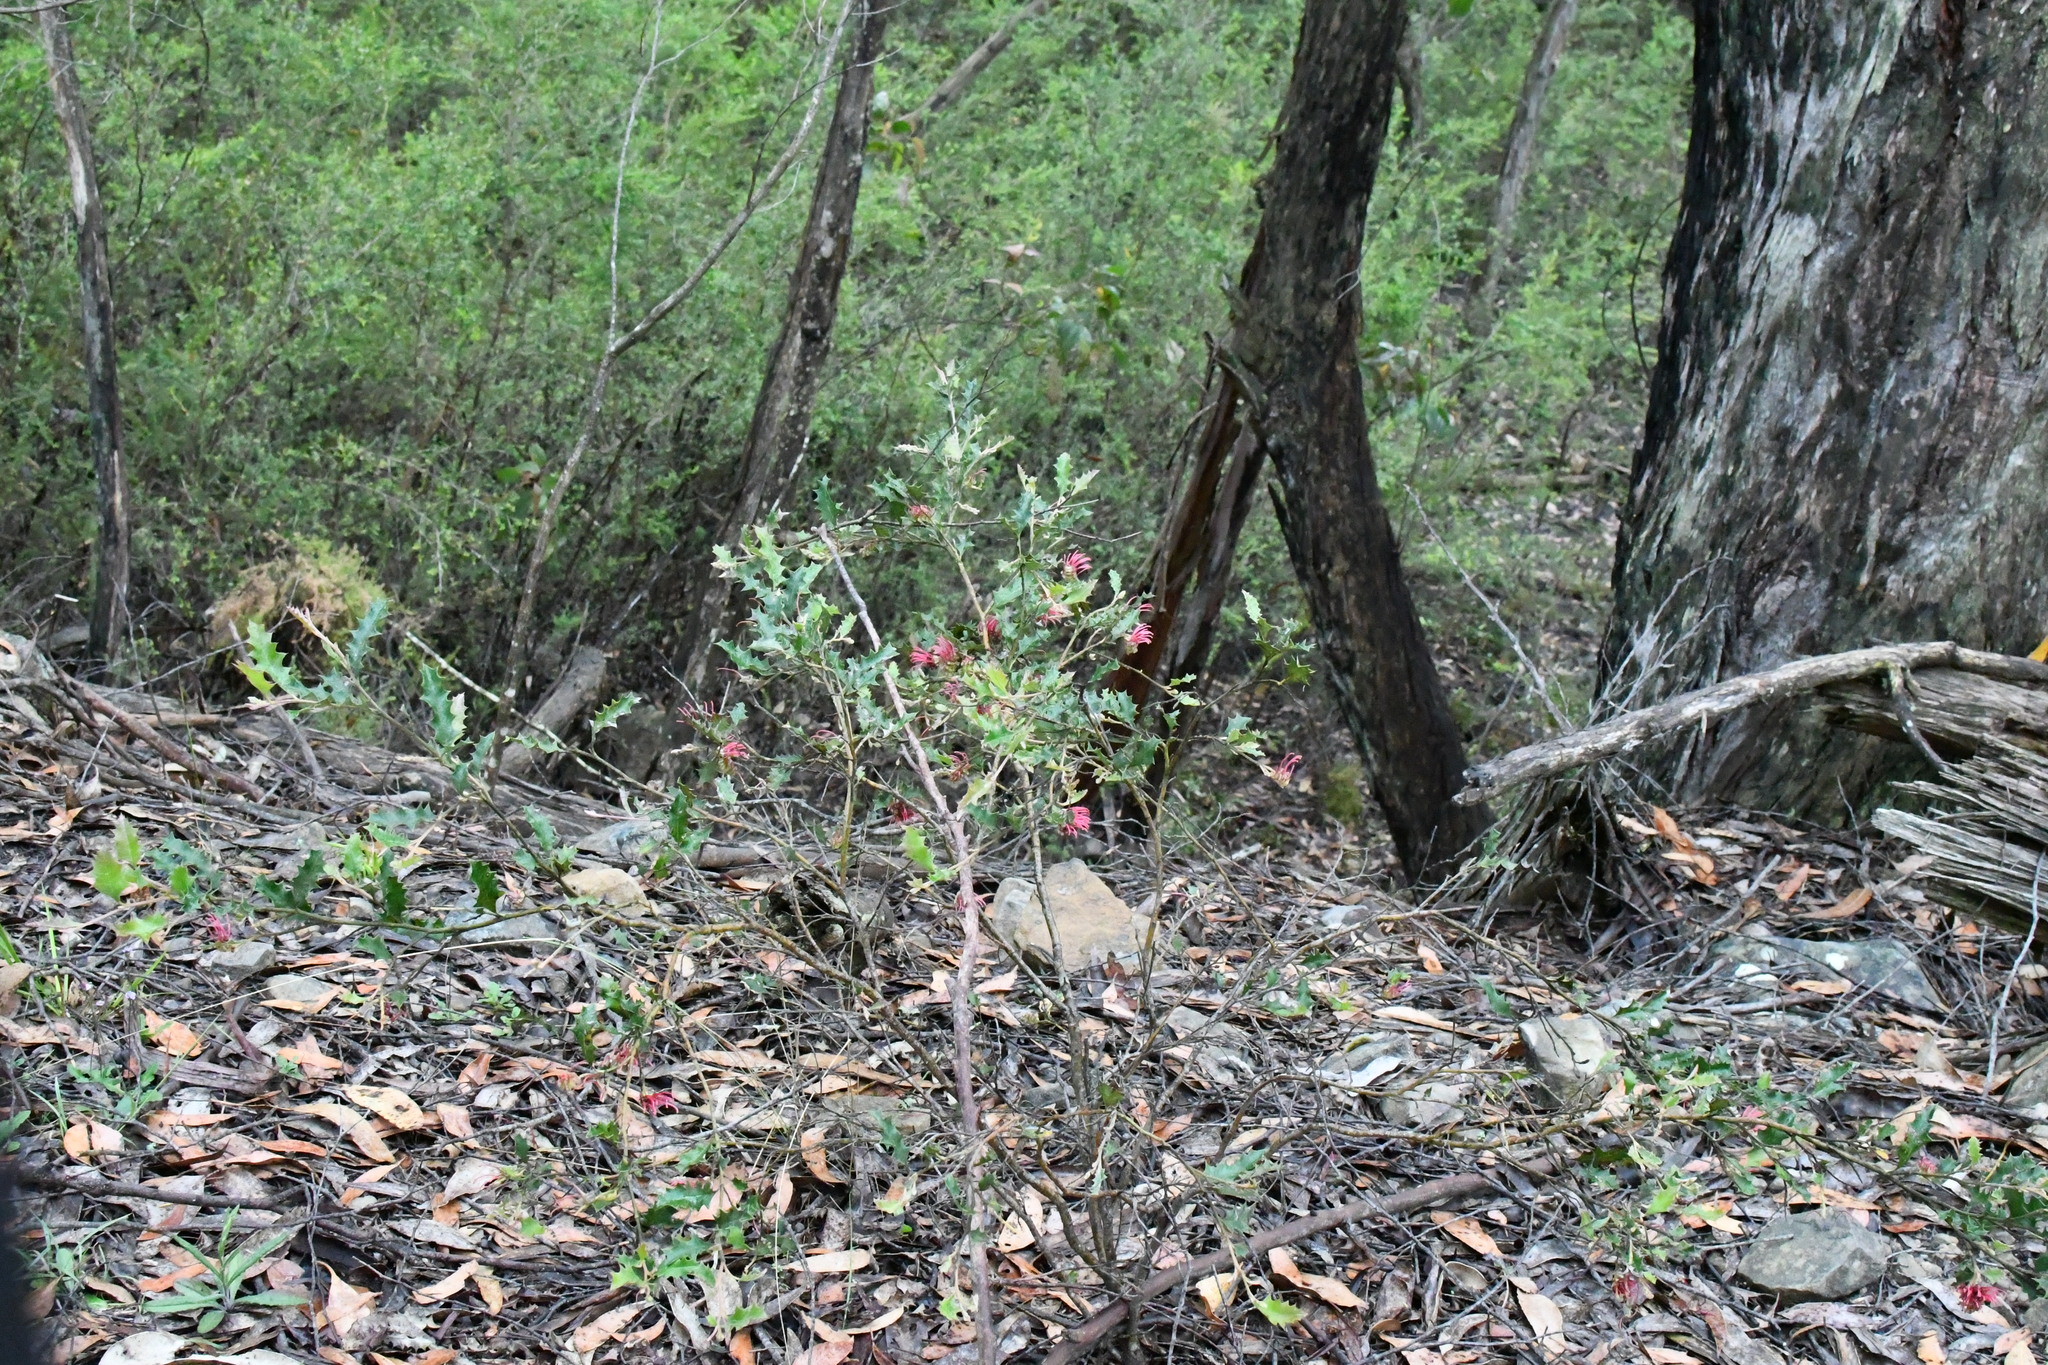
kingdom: Plantae
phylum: Tracheophyta
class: Magnoliopsida
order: Proteales
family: Proteaceae
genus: Grevillea
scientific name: Grevillea aquifolium
